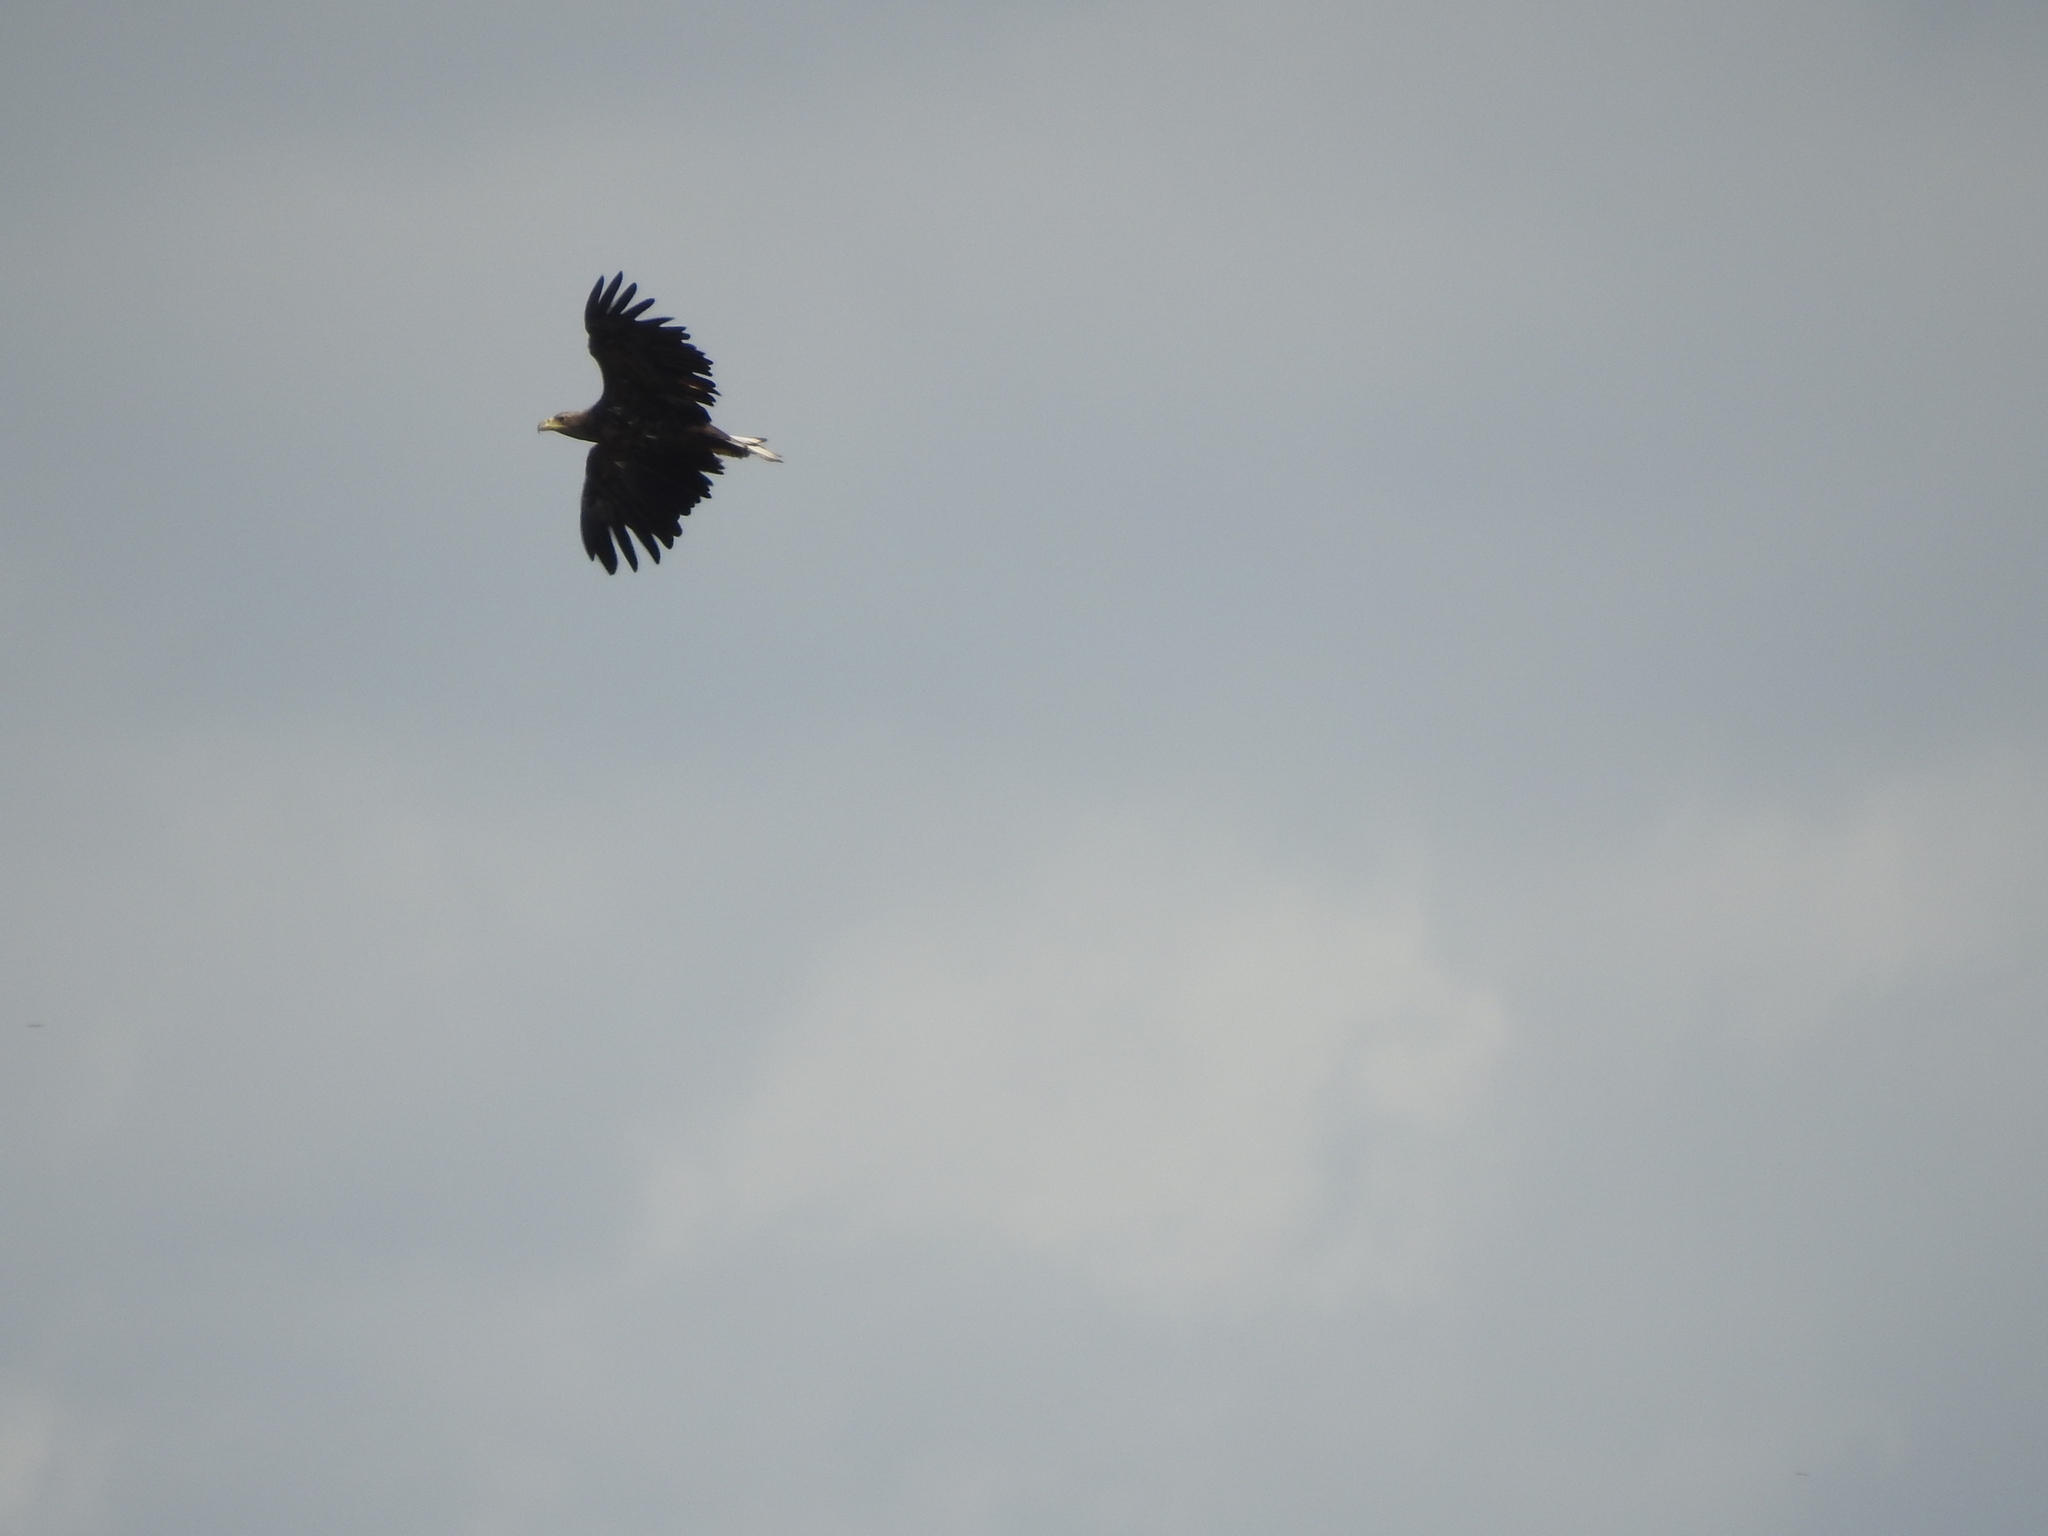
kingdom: Animalia
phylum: Chordata
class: Aves
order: Accipitriformes
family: Accipitridae
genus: Haliaeetus
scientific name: Haliaeetus albicilla
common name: White-tailed eagle
